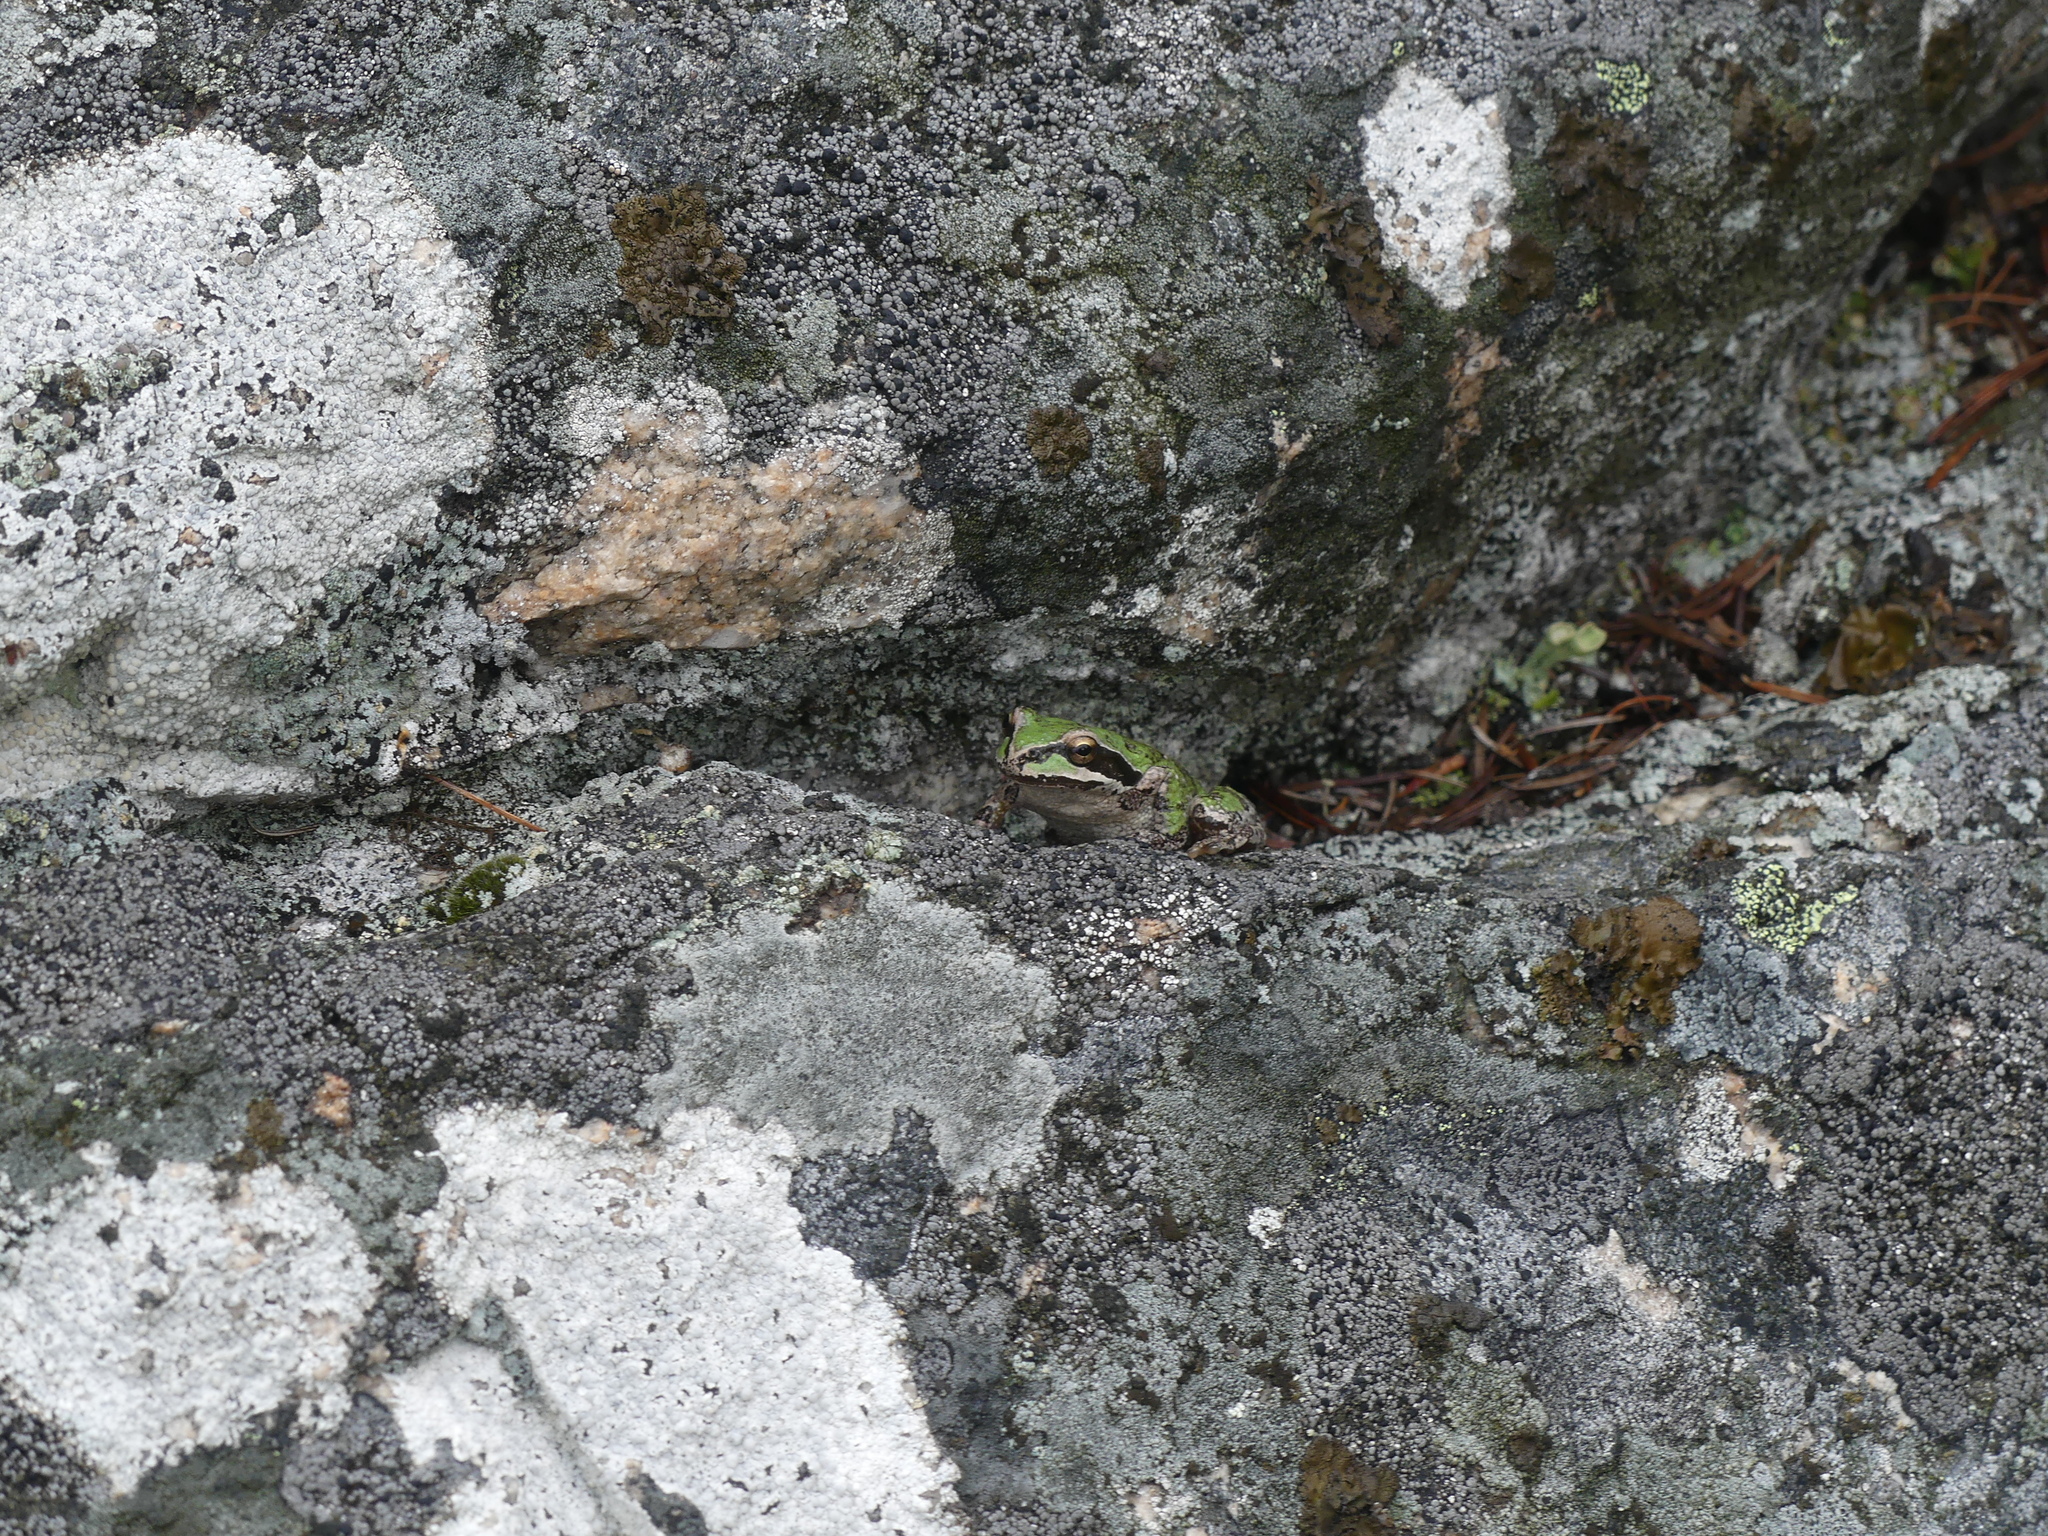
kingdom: Animalia
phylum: Chordata
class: Amphibia
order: Anura
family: Hylidae
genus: Pseudacris
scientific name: Pseudacris regilla
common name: Pacific chorus frog
